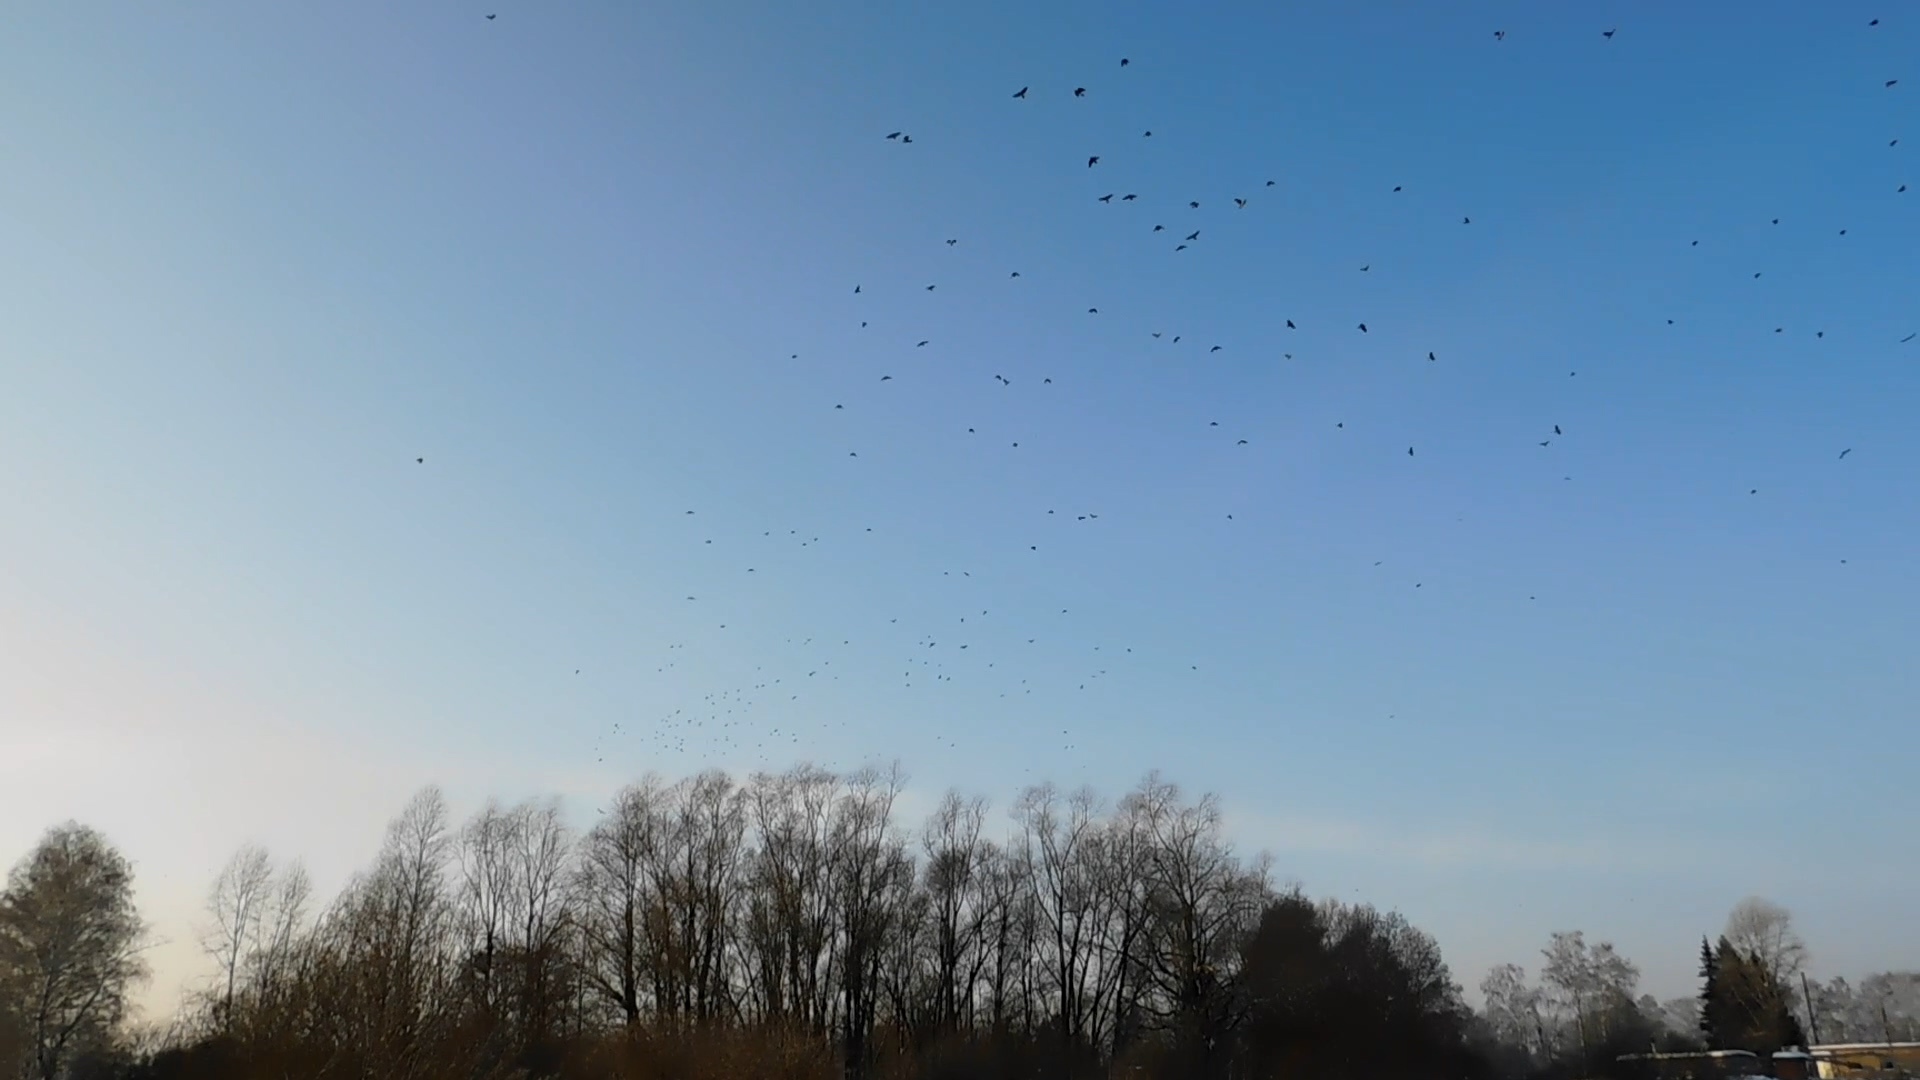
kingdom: Animalia
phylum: Chordata
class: Aves
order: Passeriformes
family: Corvidae
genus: Coloeus
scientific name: Coloeus monedula
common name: Western jackdaw
